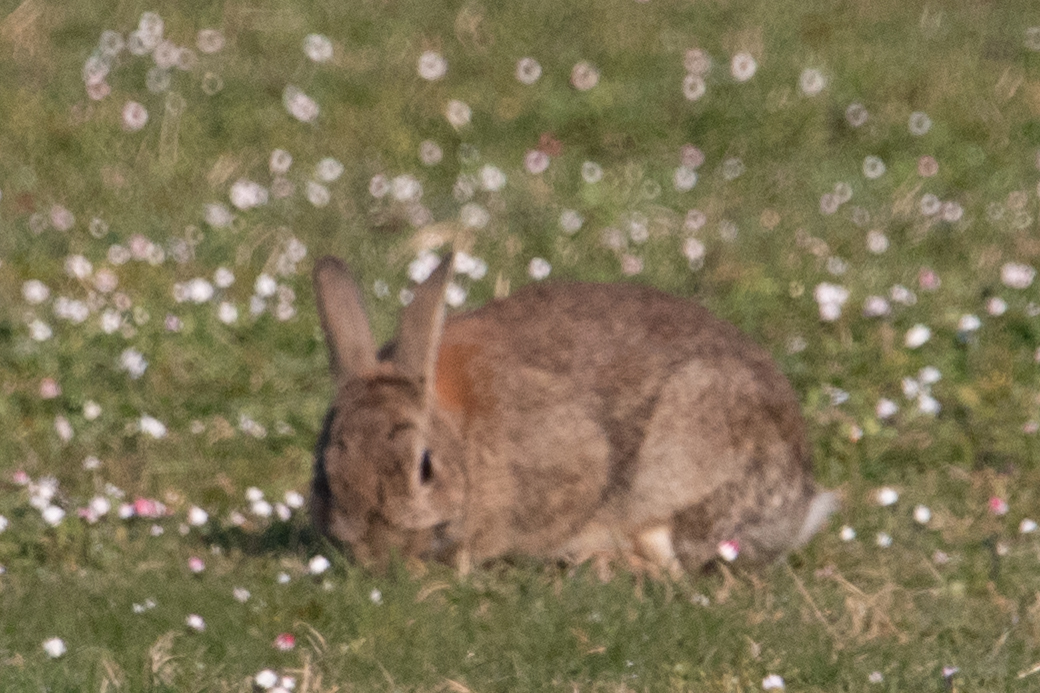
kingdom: Animalia
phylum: Chordata
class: Mammalia
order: Lagomorpha
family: Leporidae
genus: Oryctolagus
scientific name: Oryctolagus cuniculus
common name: European rabbit
